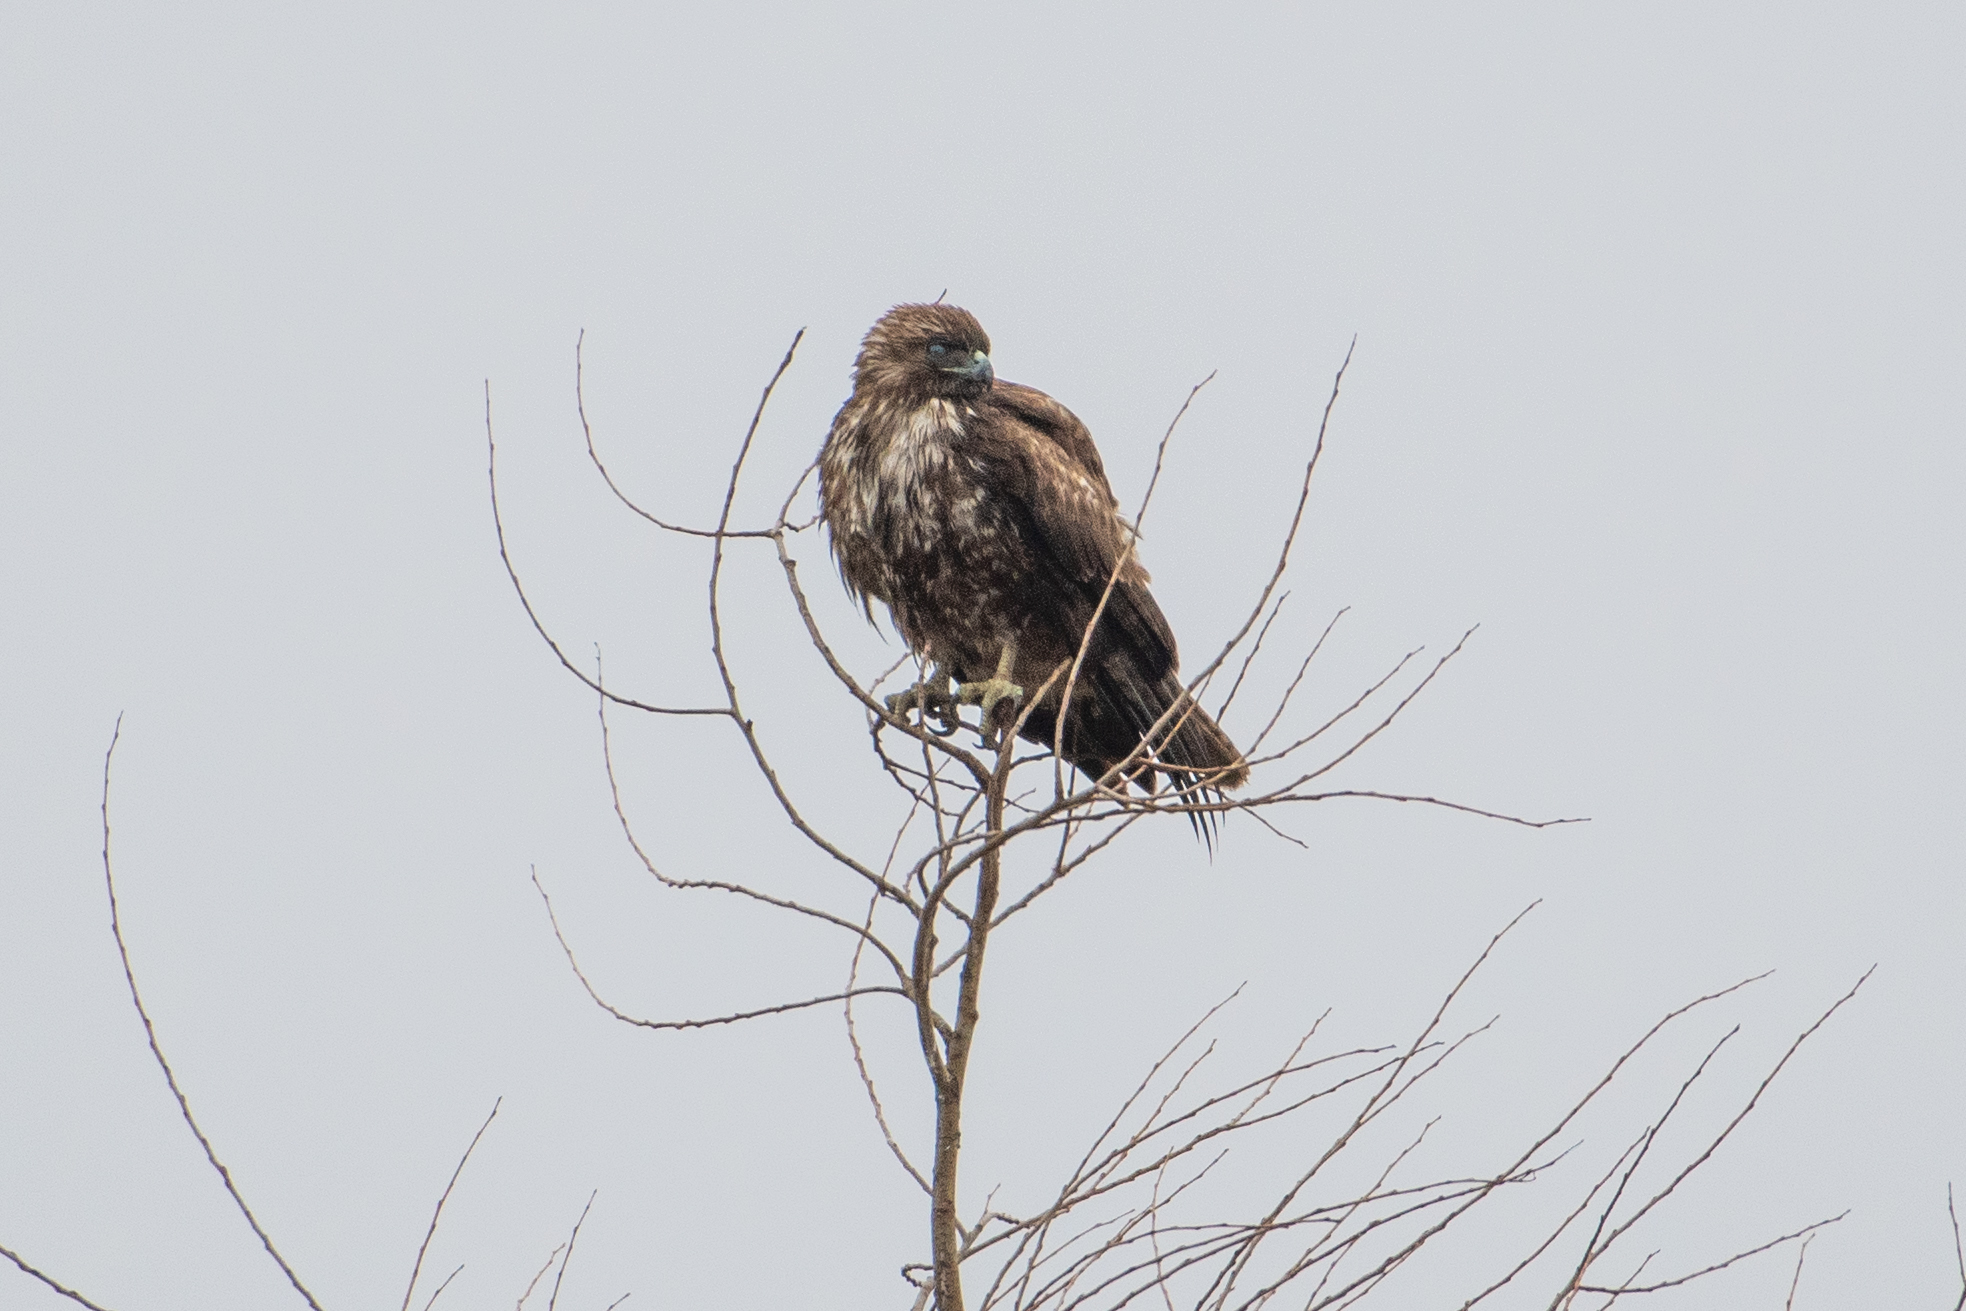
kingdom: Animalia
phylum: Chordata
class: Aves
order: Accipitriformes
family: Accipitridae
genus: Buteo
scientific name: Buteo jamaicensis
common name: Red-tailed hawk
